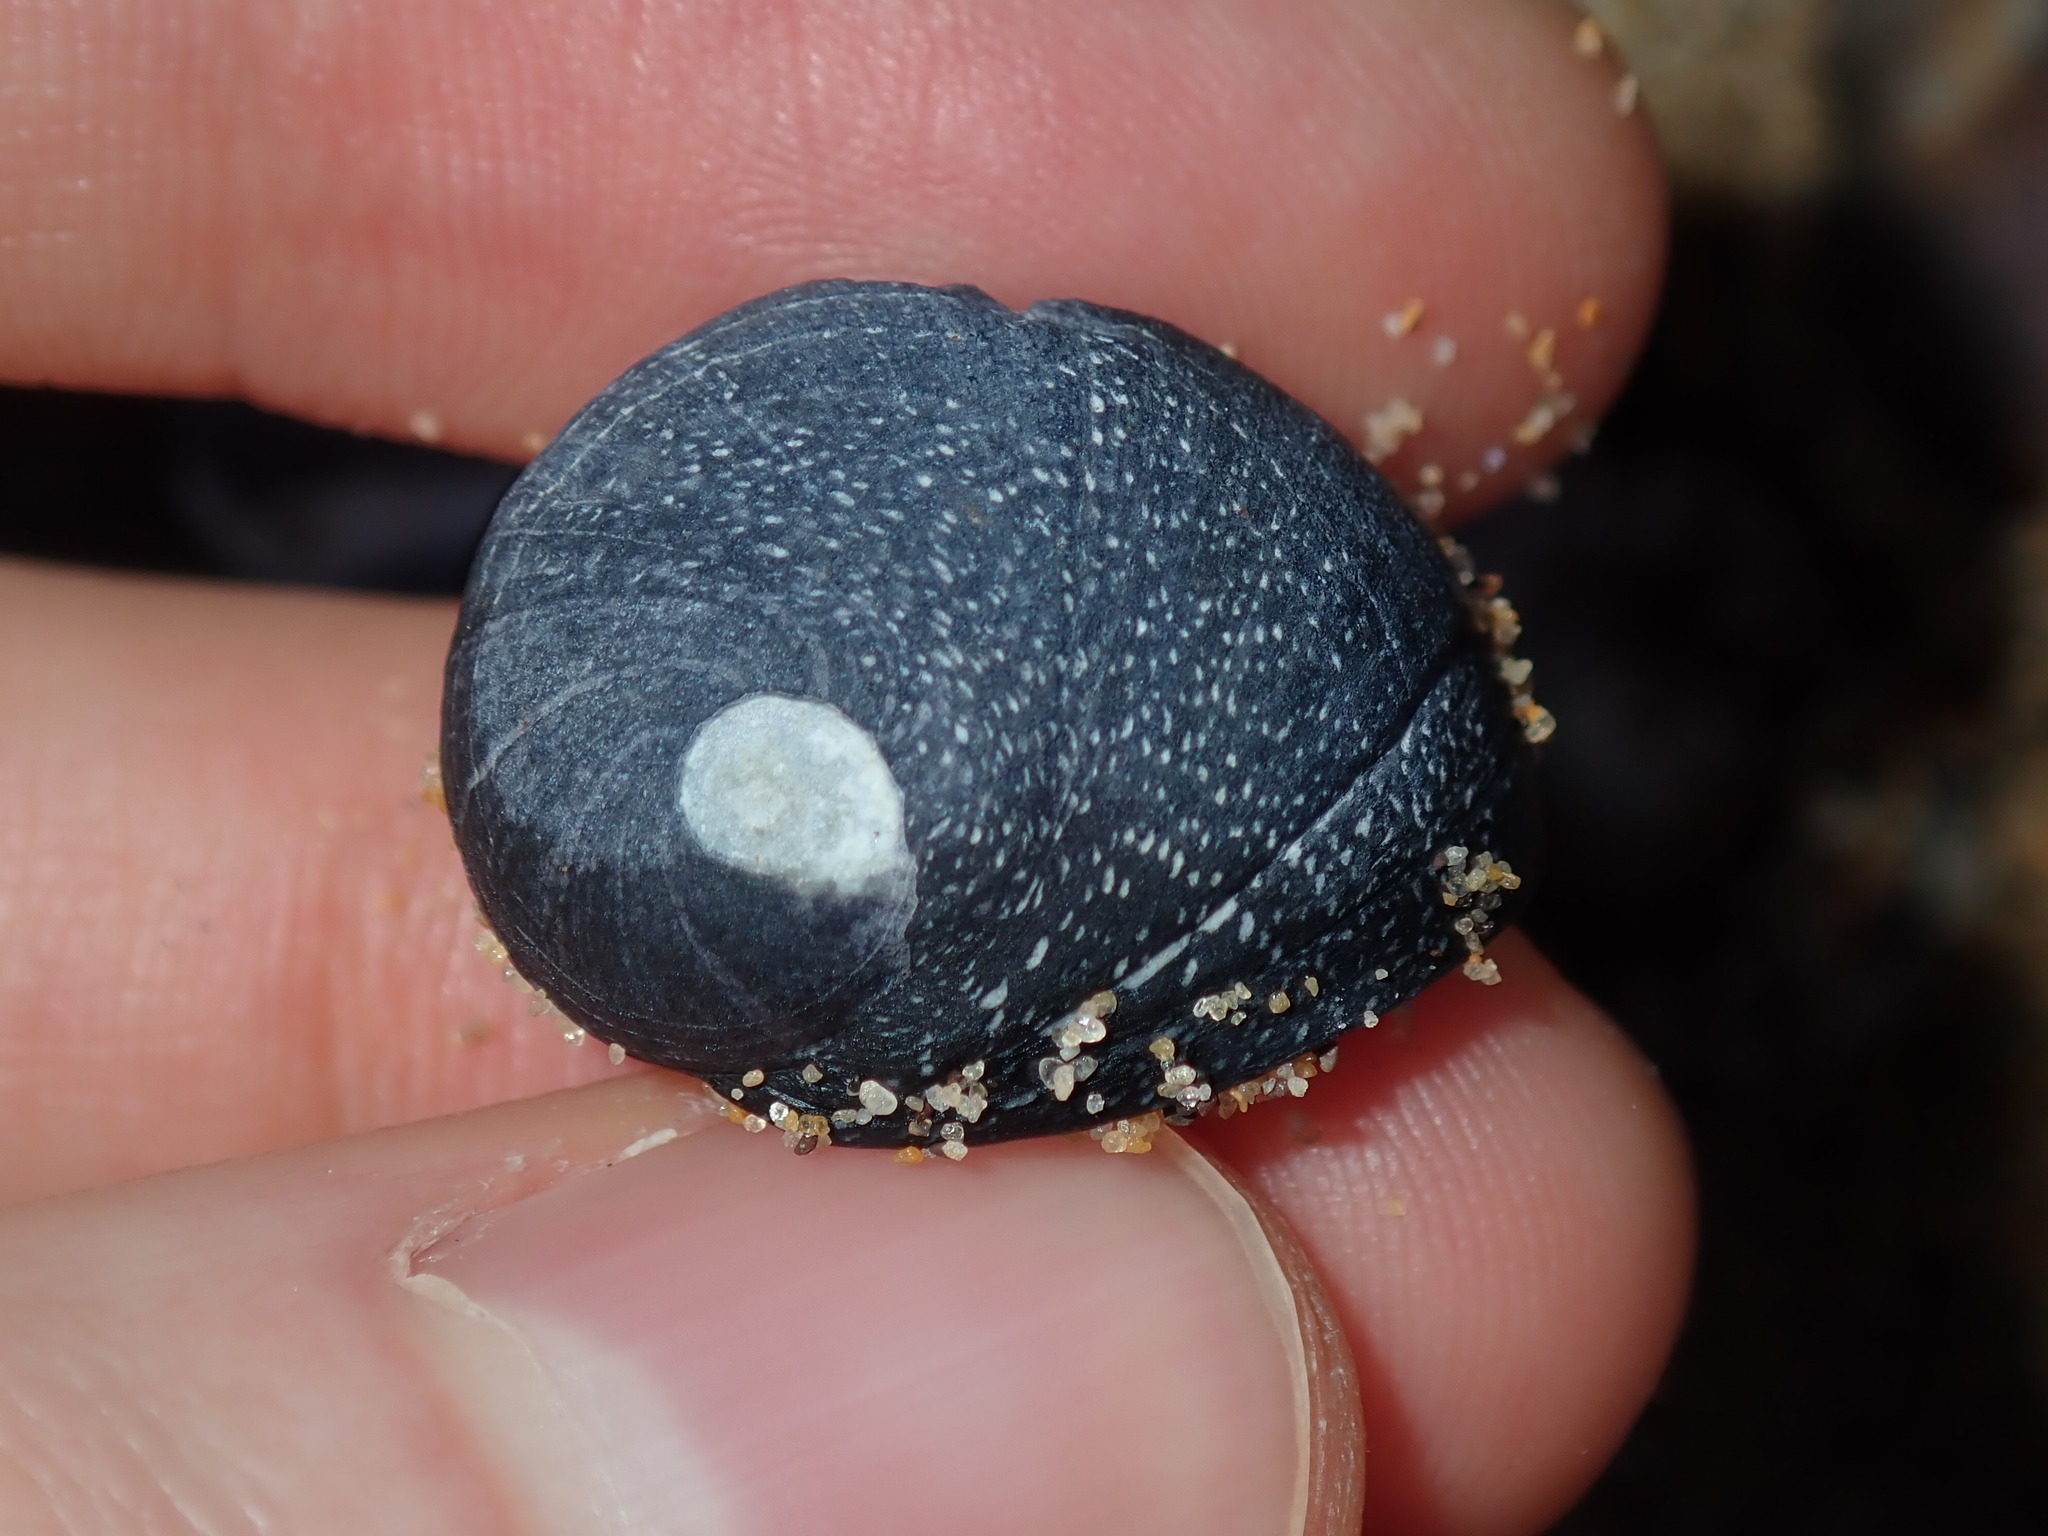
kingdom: Animalia
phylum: Mollusca
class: Gastropoda
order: Cycloneritida
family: Neritidae
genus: Nerita
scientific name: Nerita melanotragus
